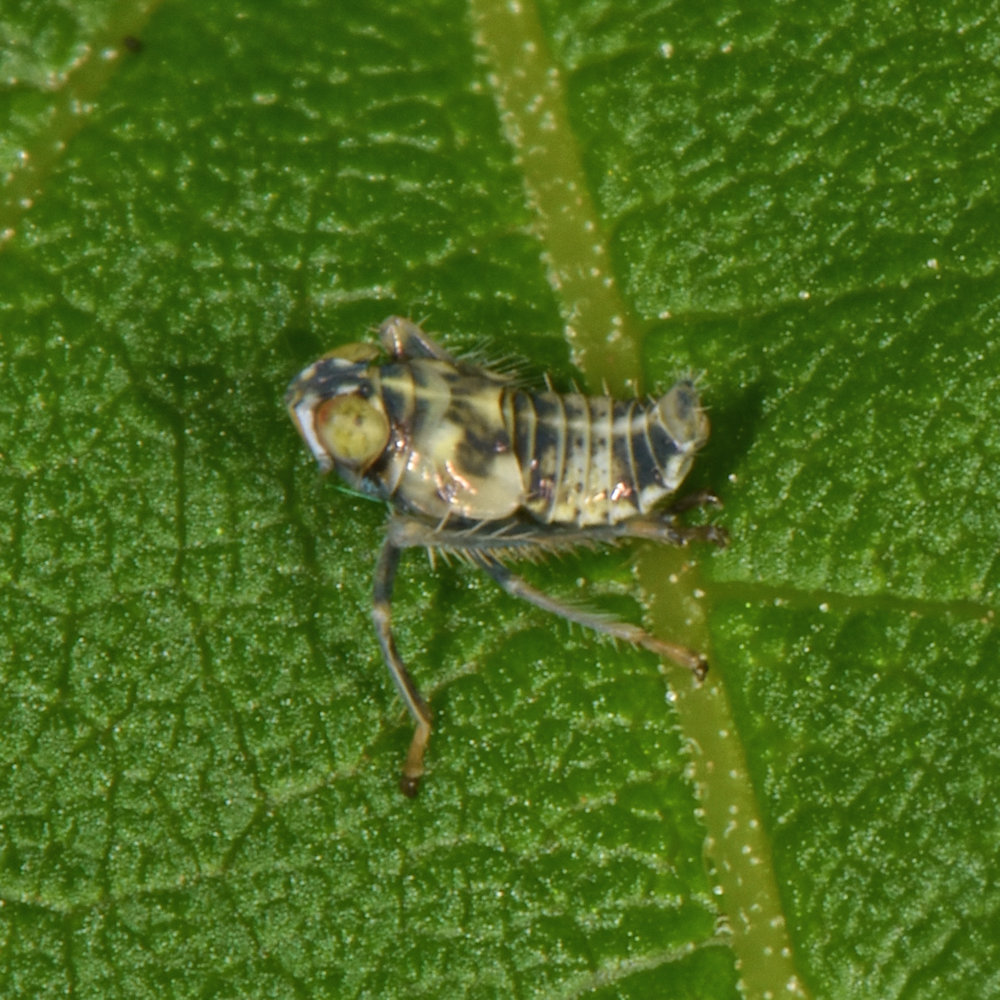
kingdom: Animalia
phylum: Arthropoda
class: Insecta
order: Hemiptera
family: Cicadellidae
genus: Jikradia
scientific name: Jikradia olitoria
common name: Coppery leafhopper
